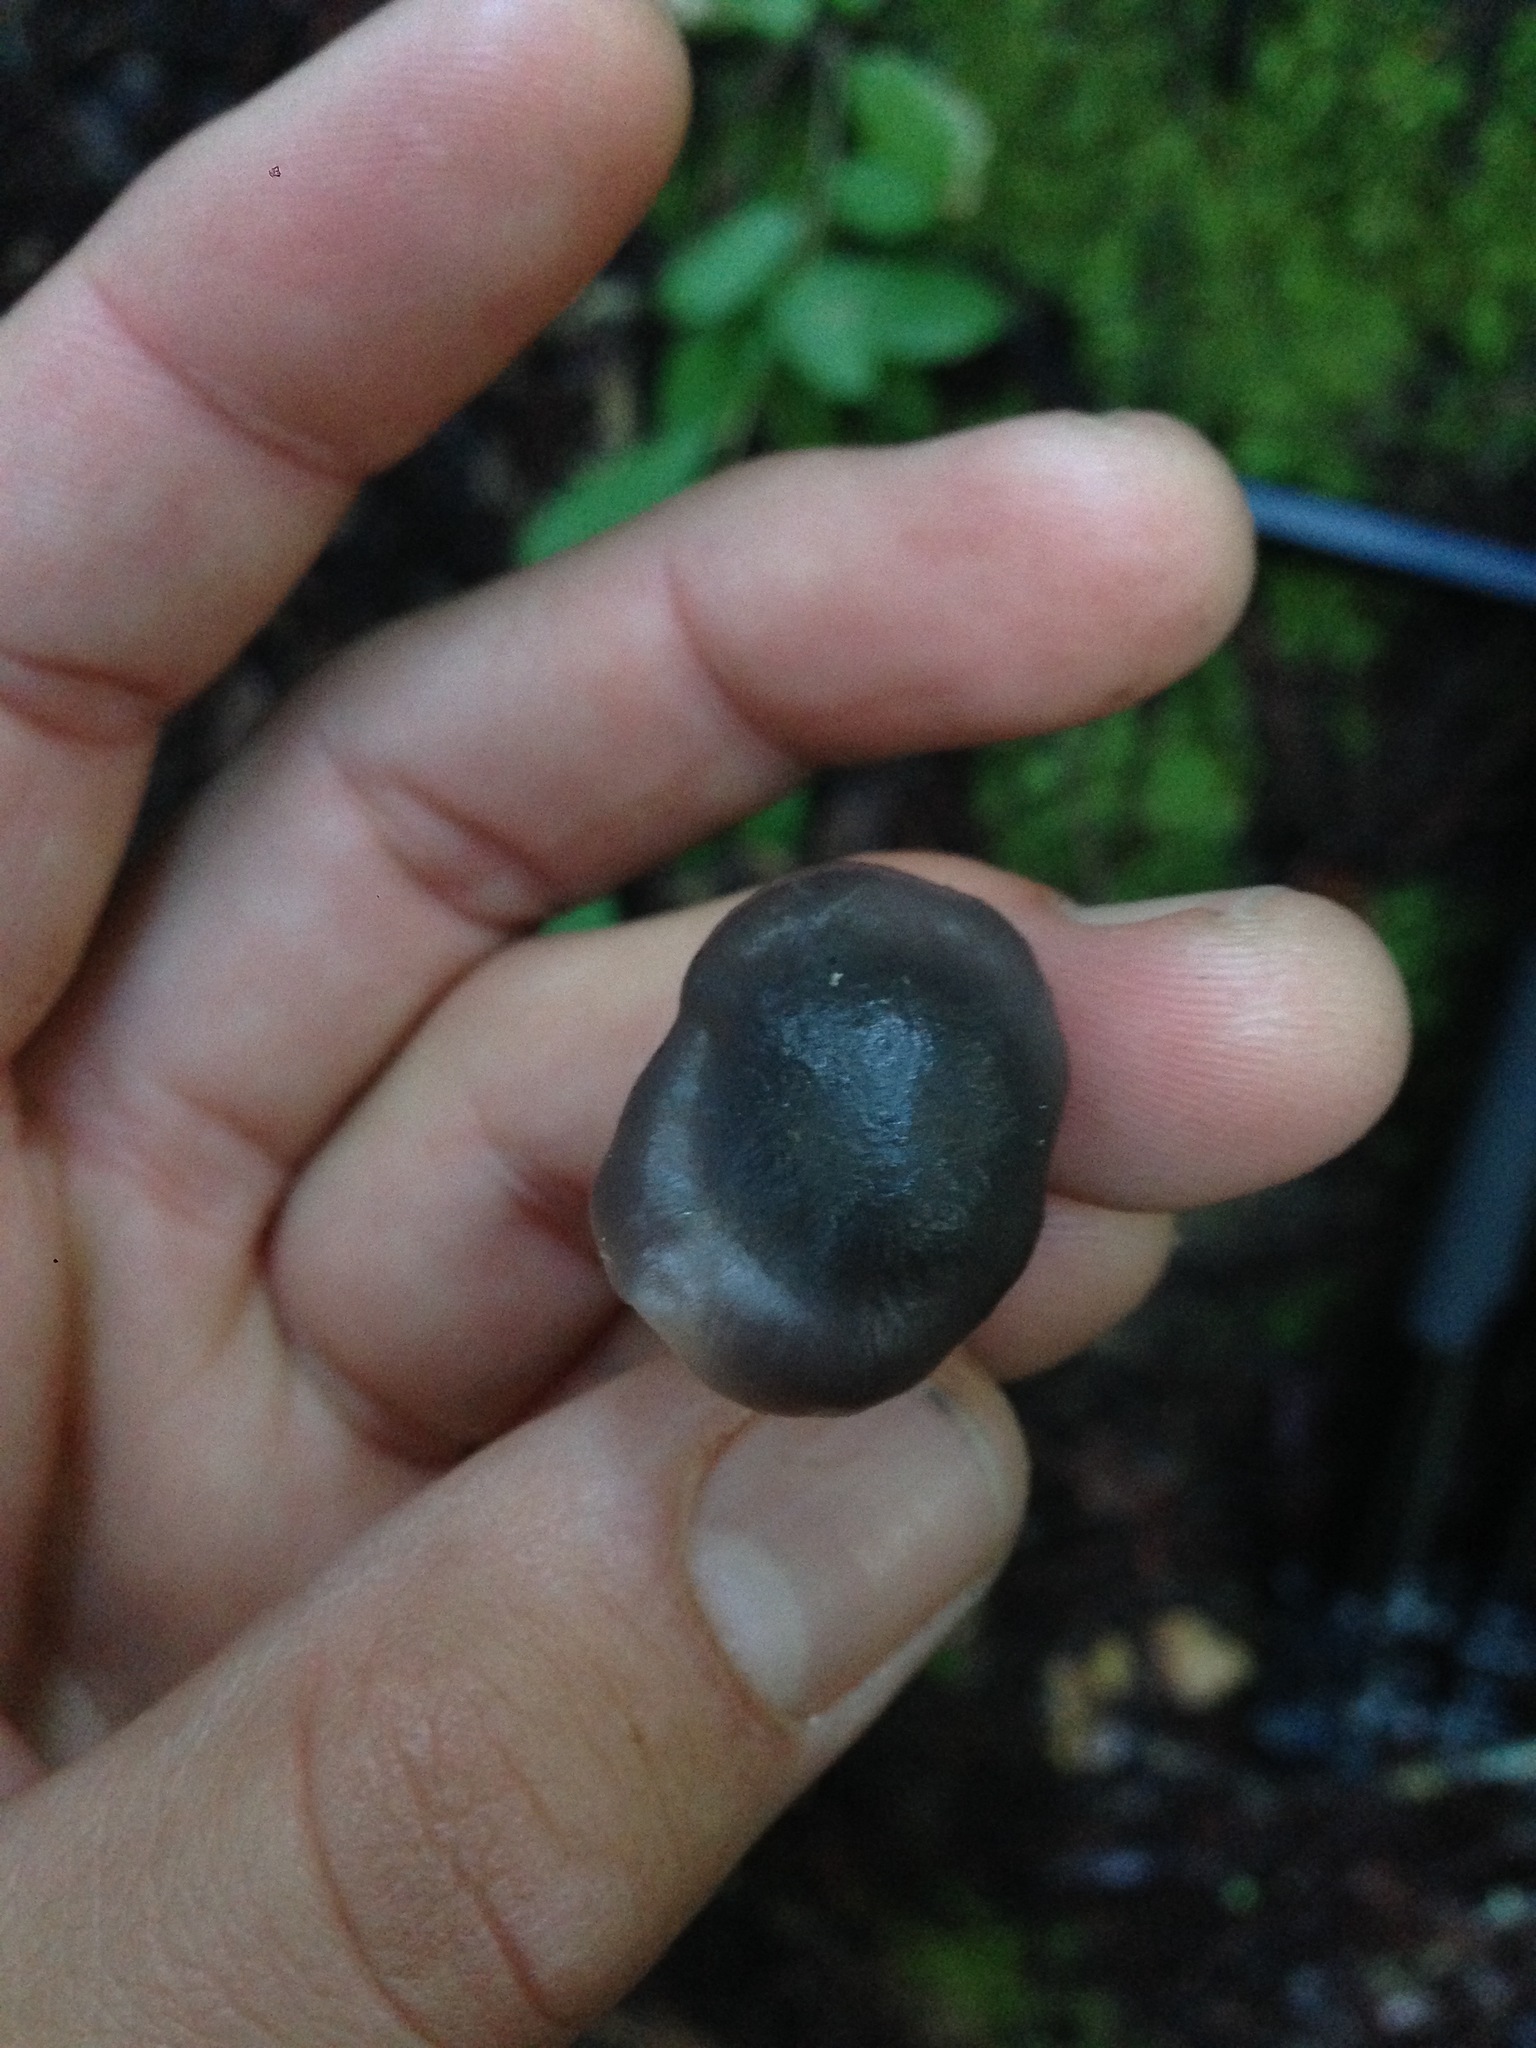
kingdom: Fungi
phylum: Basidiomycota
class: Agaricomycetes
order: Agaricales
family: Hygrophoraceae
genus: Cuphophyllus
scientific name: Cuphophyllus lacmus
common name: Grey waxcap
